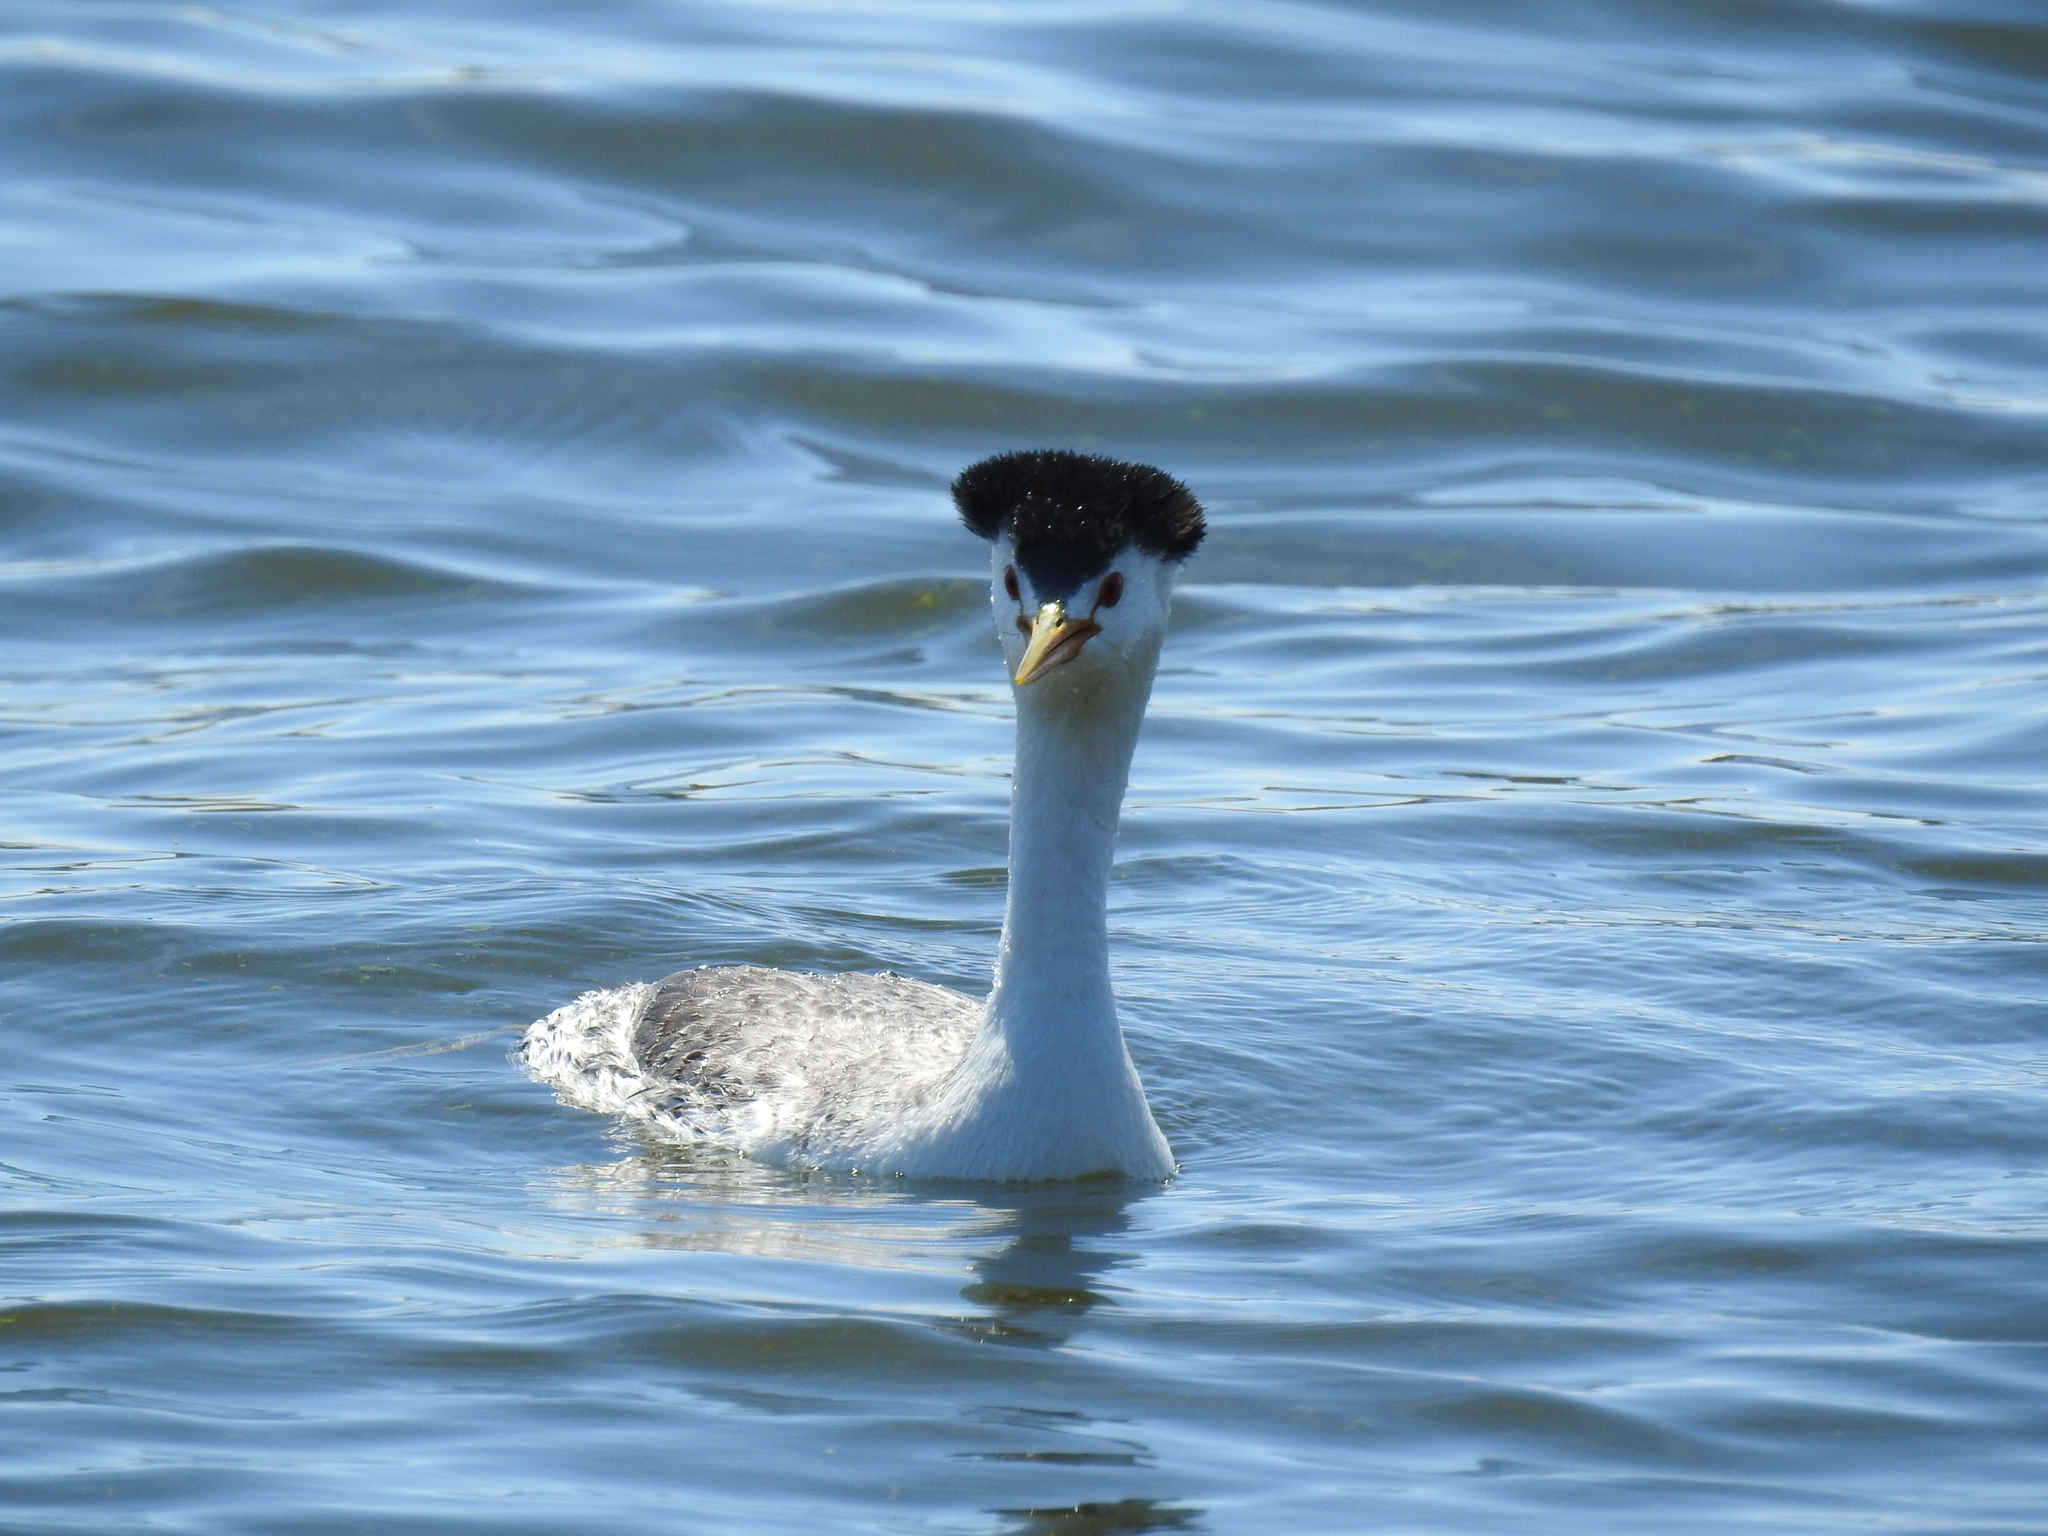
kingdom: Animalia
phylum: Chordata
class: Aves
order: Podicipediformes
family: Podicipedidae
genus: Aechmophorus
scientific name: Aechmophorus clarkii
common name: Clark's grebe
